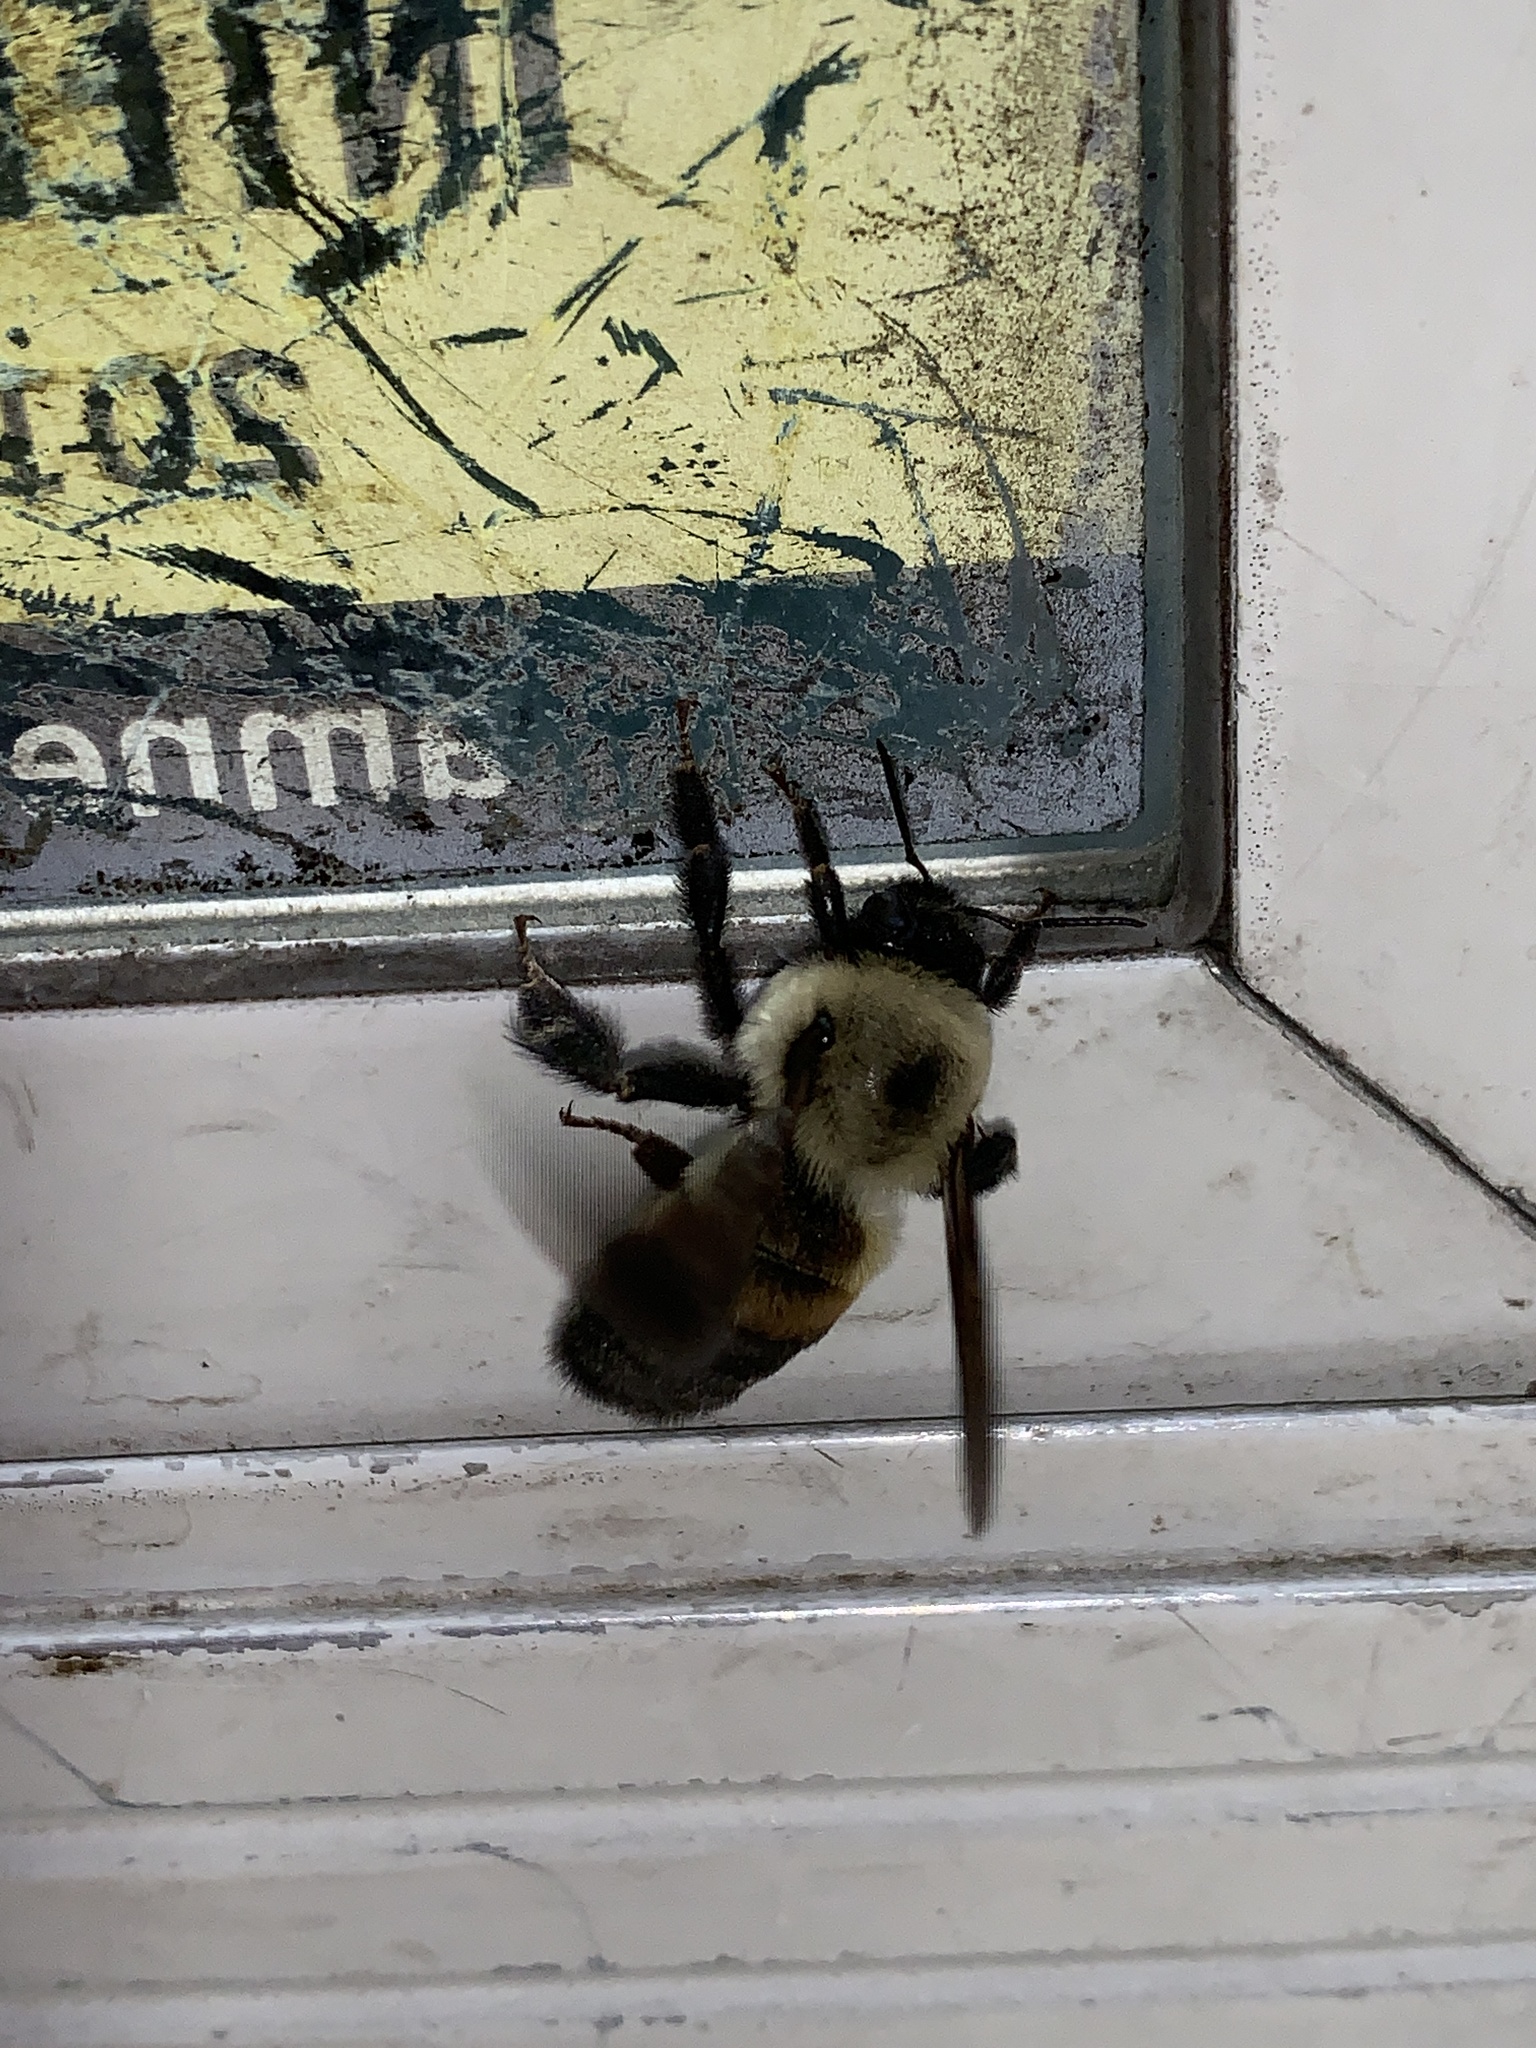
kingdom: Animalia
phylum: Arthropoda
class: Insecta
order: Hymenoptera
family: Apidae
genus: Bombus
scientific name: Bombus griseocollis
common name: Brown-belted bumble bee
